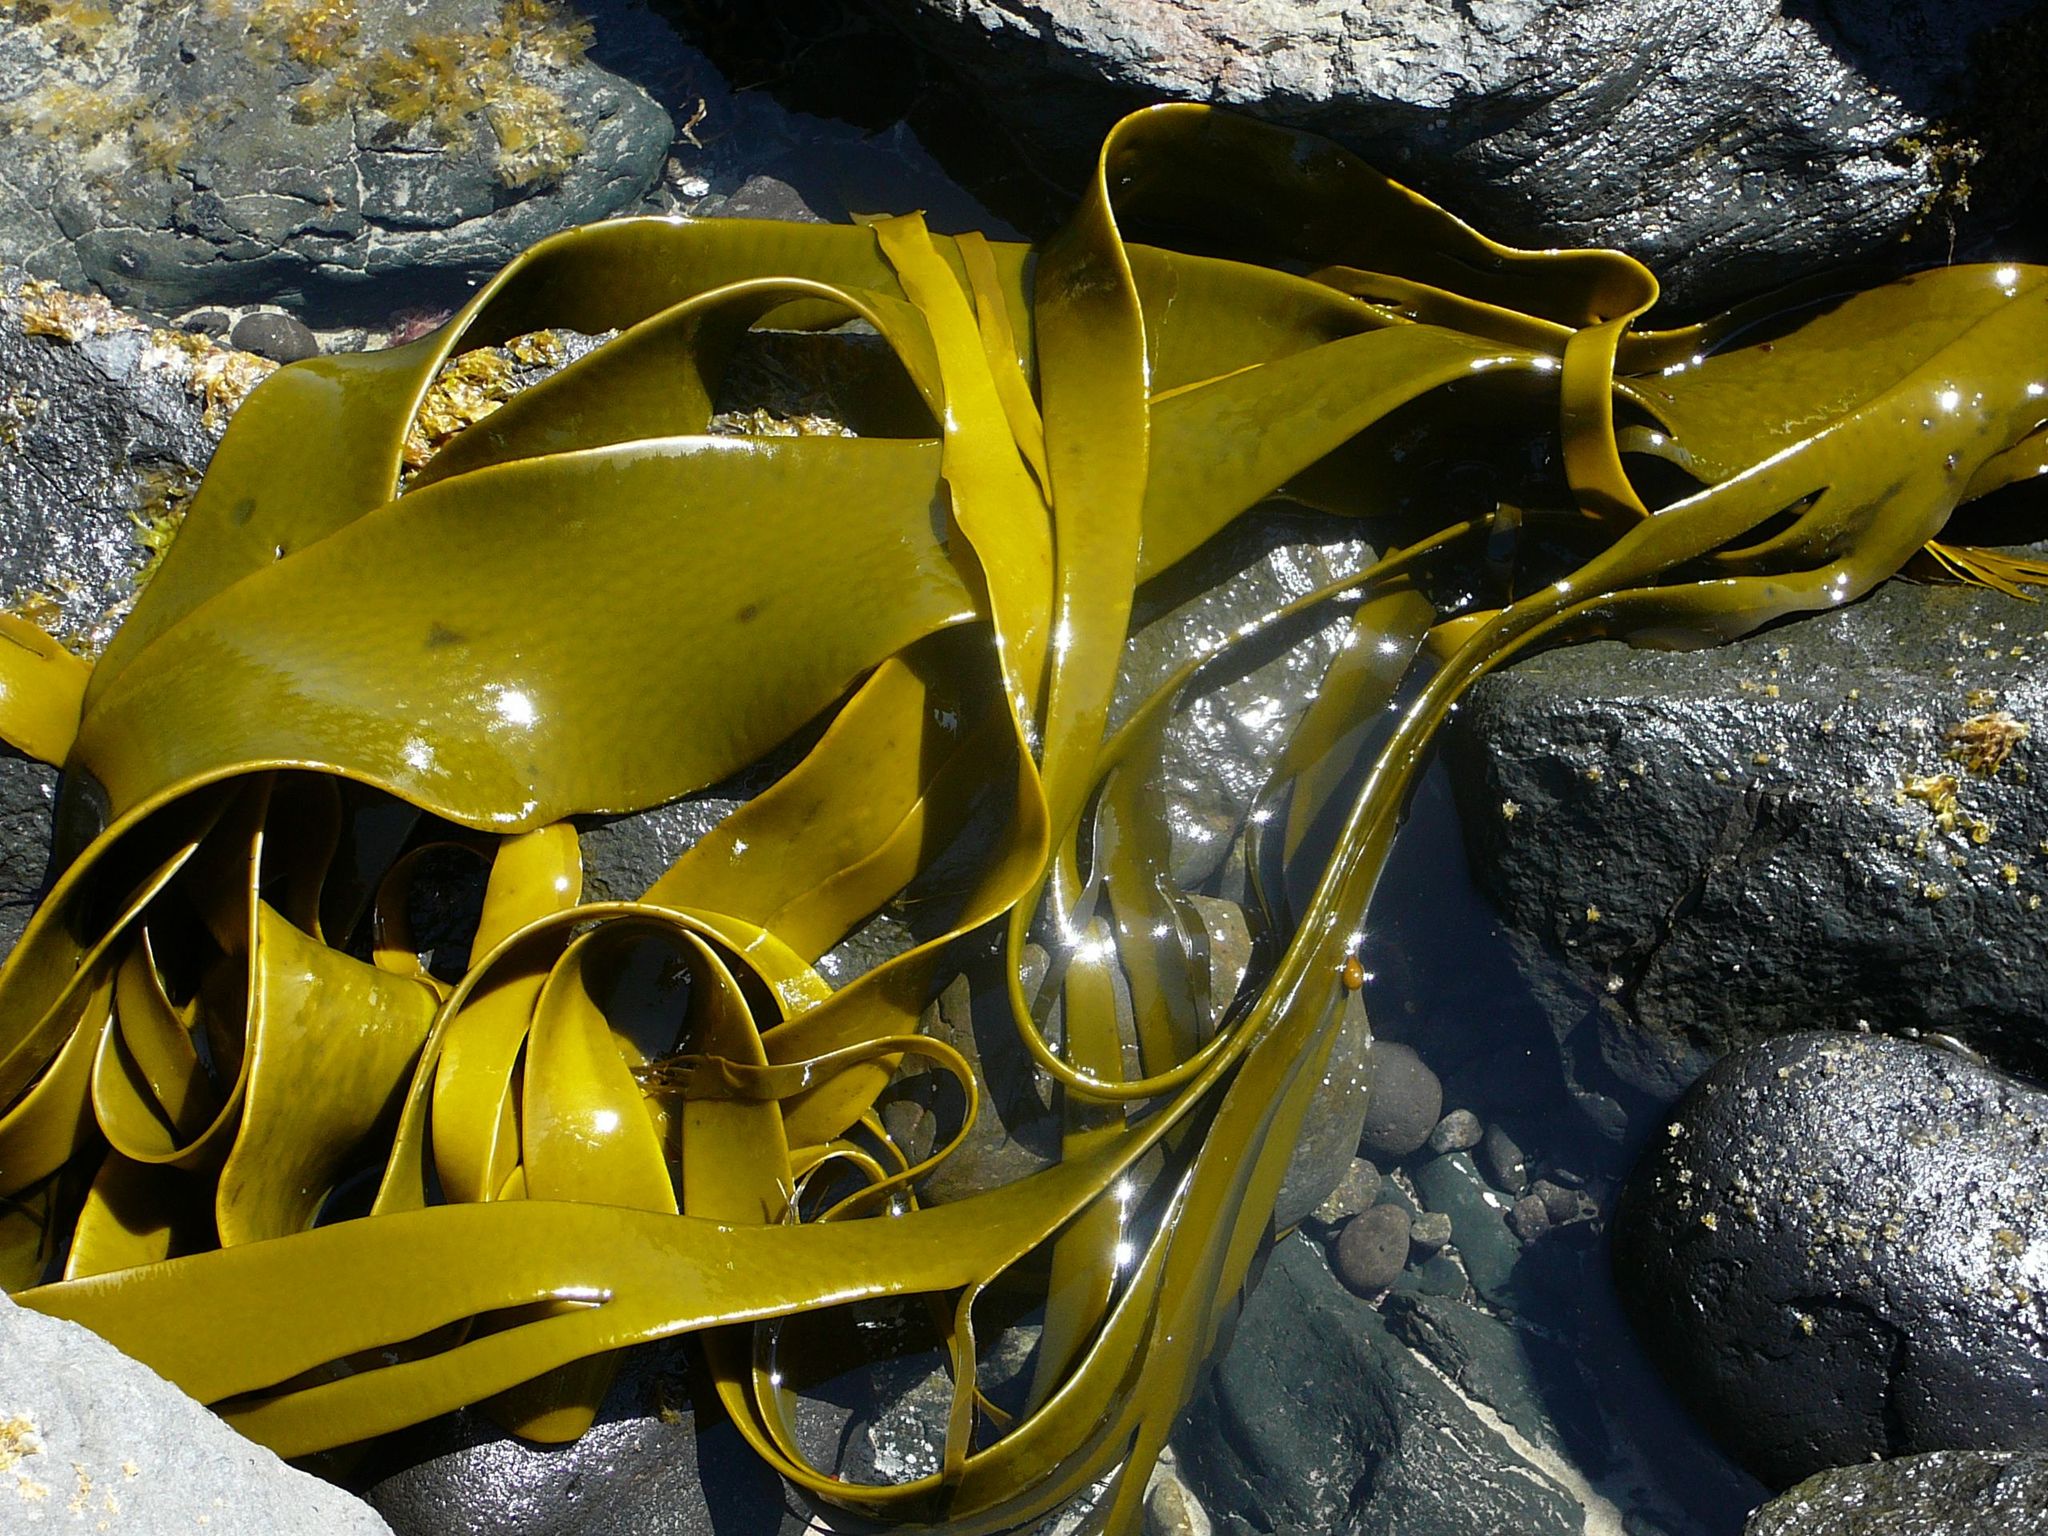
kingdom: Chromista
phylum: Ochrophyta
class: Phaeophyceae
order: Fucales
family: Durvillaeaceae
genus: Durvillaea
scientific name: Durvillaea antarctica
